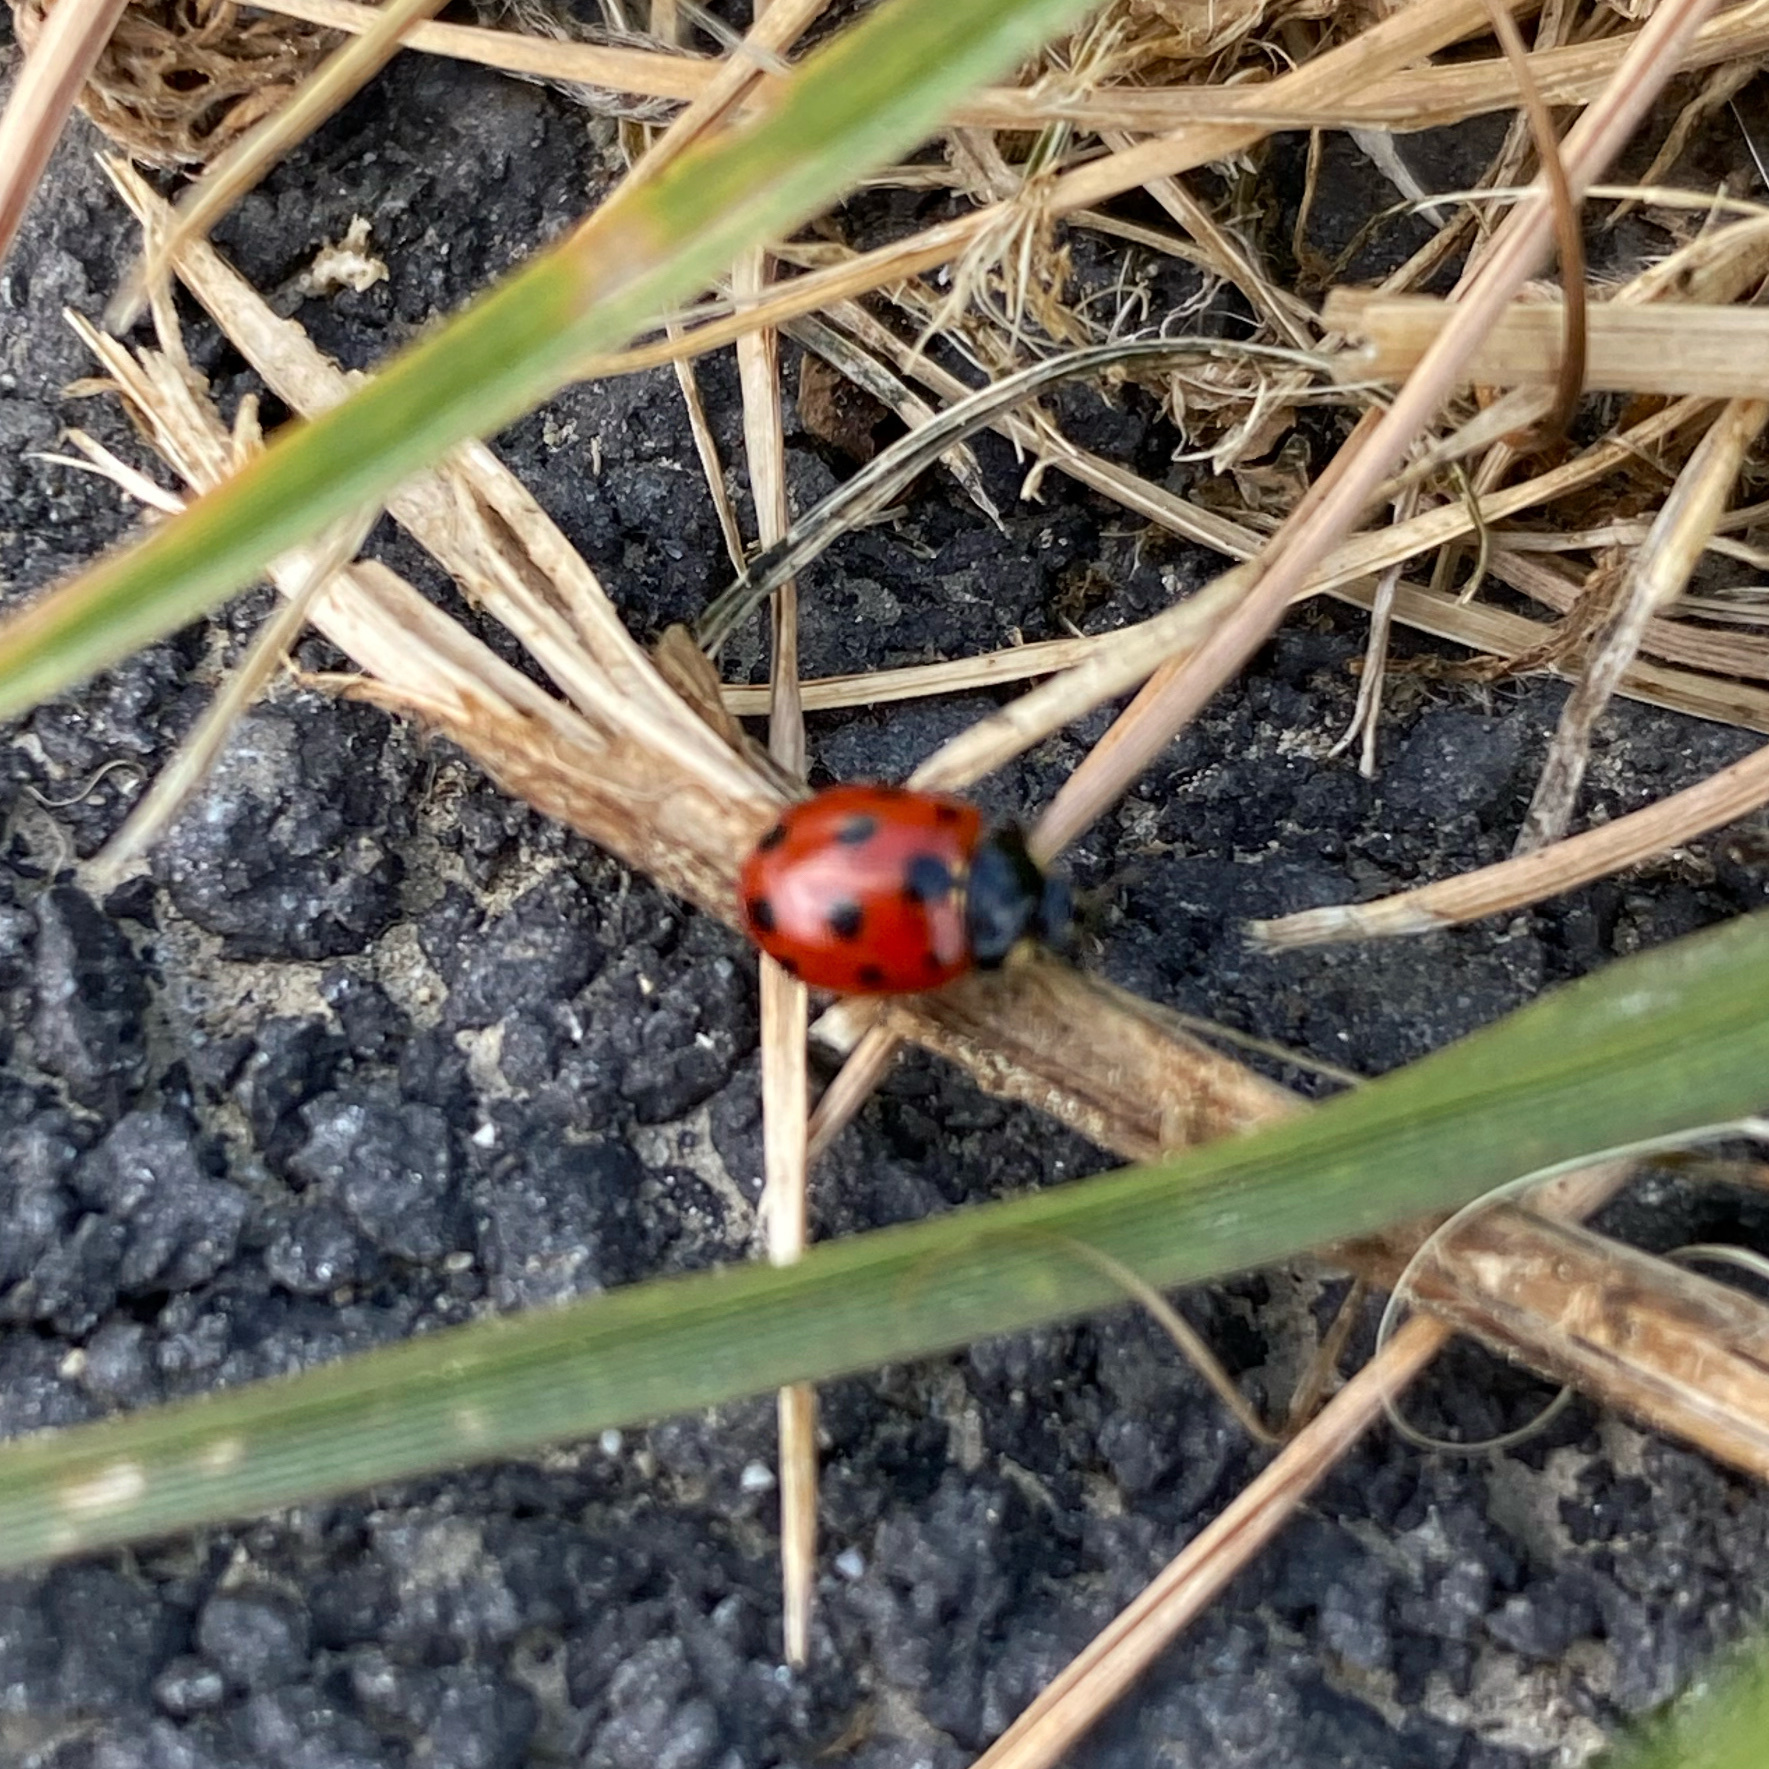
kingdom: Animalia
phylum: Arthropoda
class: Insecta
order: Coleoptera
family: Coccinellidae
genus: Coccinella
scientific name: Coccinella undecimpunctata
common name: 11-spot ladybird
